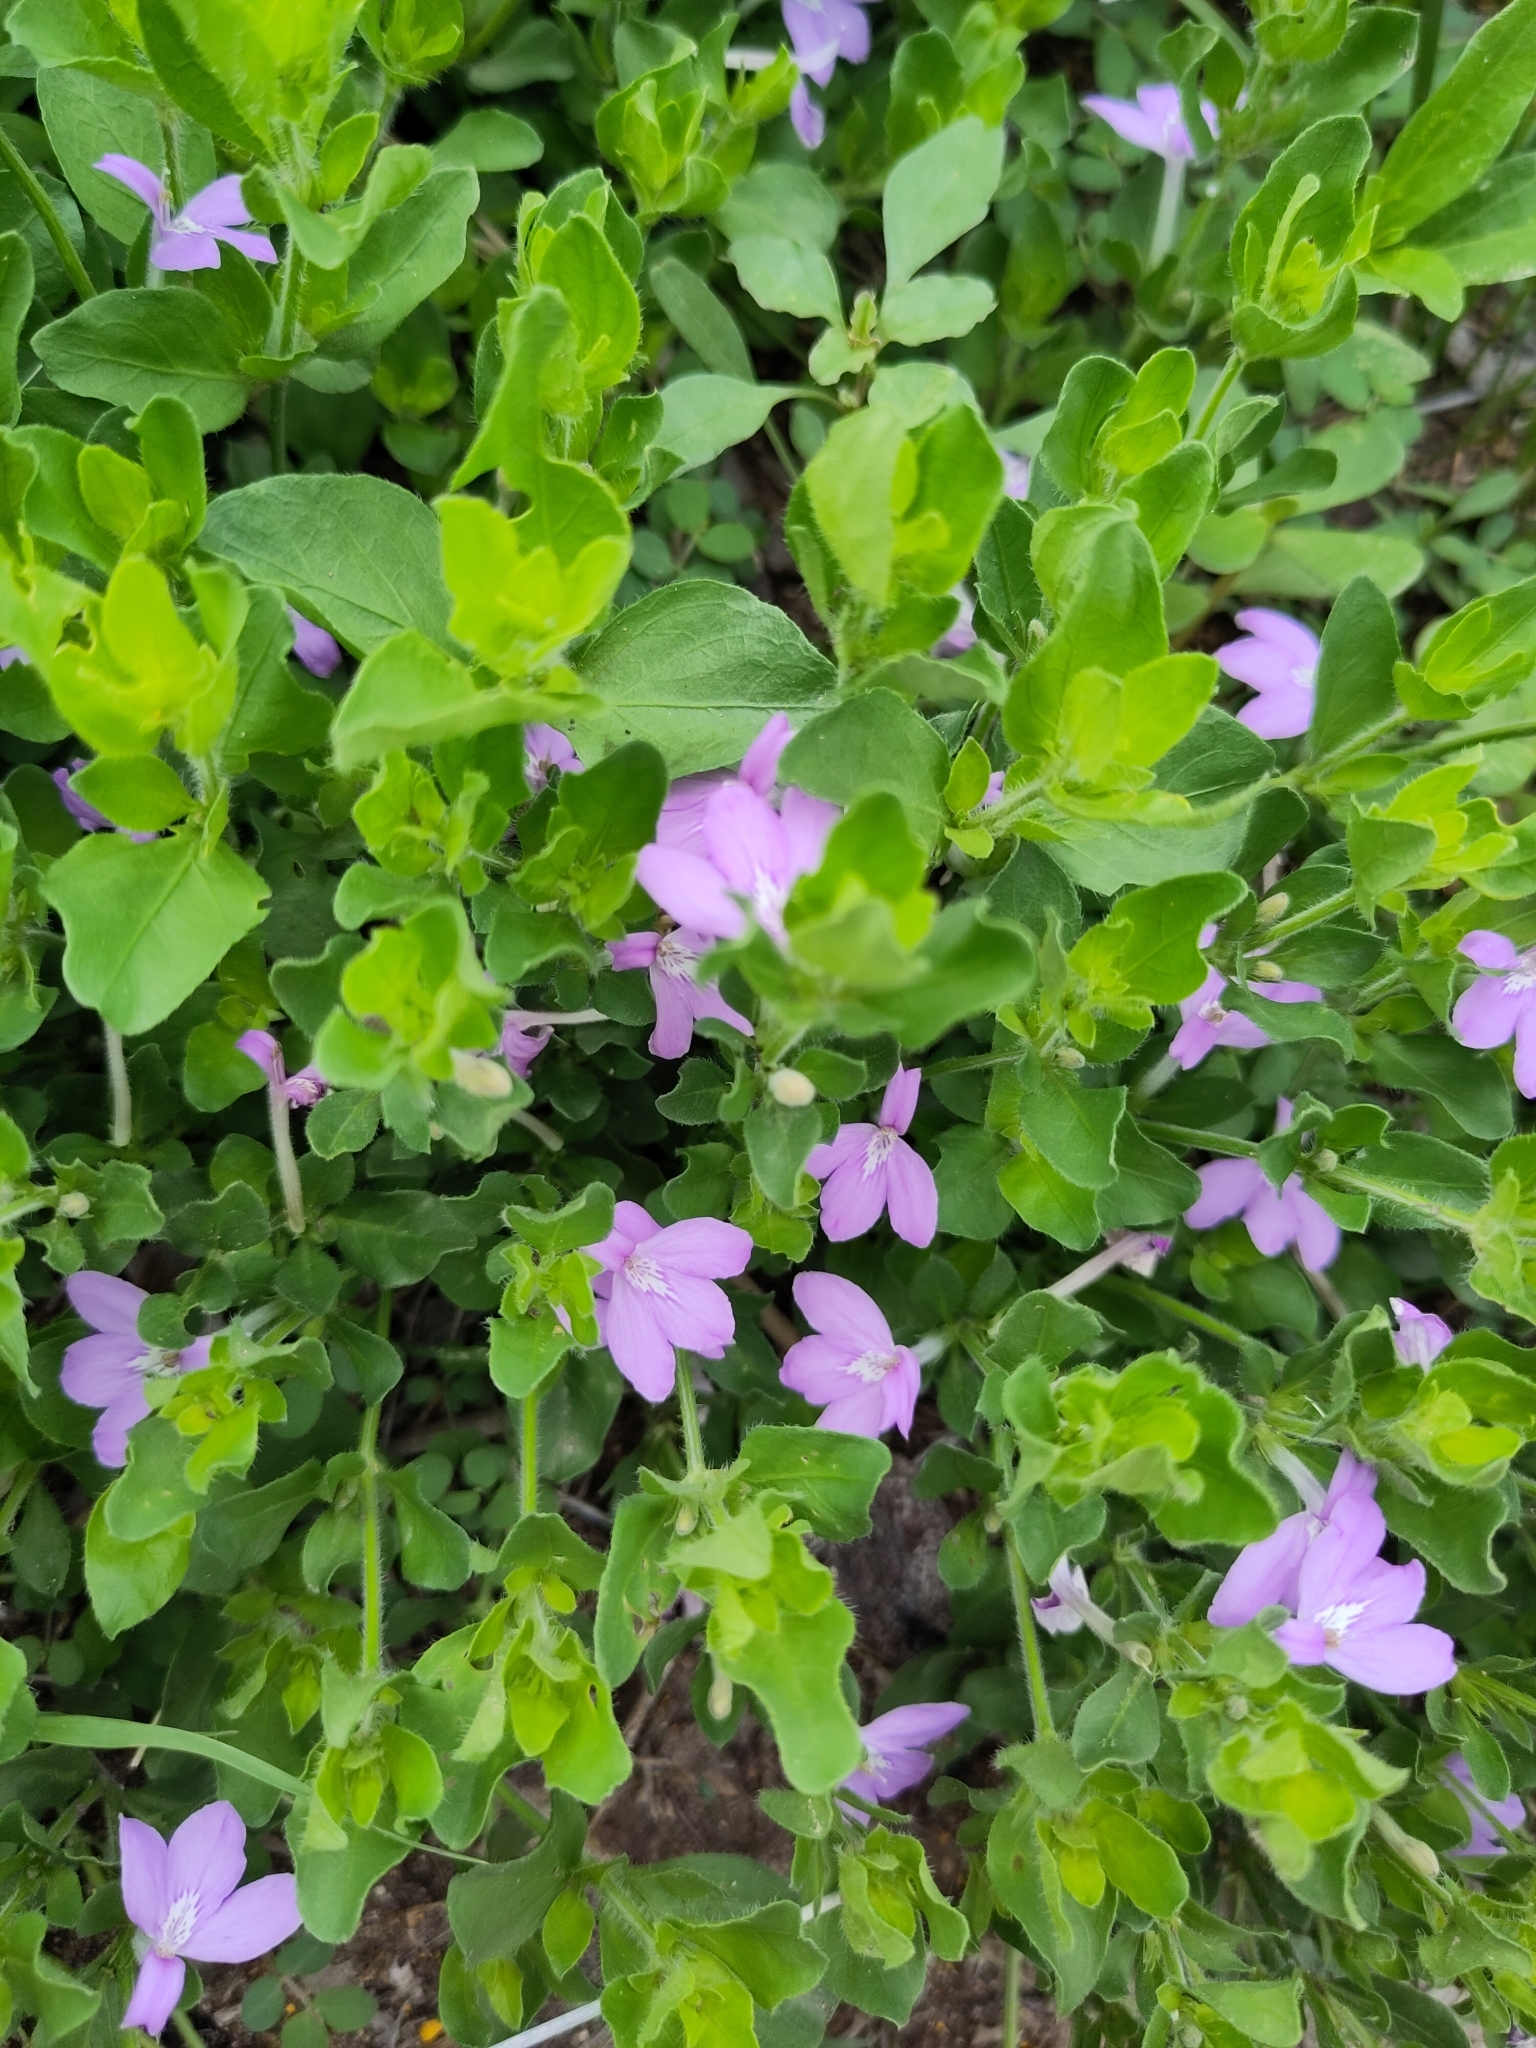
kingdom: Plantae
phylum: Tracheophyta
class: Magnoliopsida
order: Lamiales
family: Acanthaceae
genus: Justicia
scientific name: Justicia pilosella
